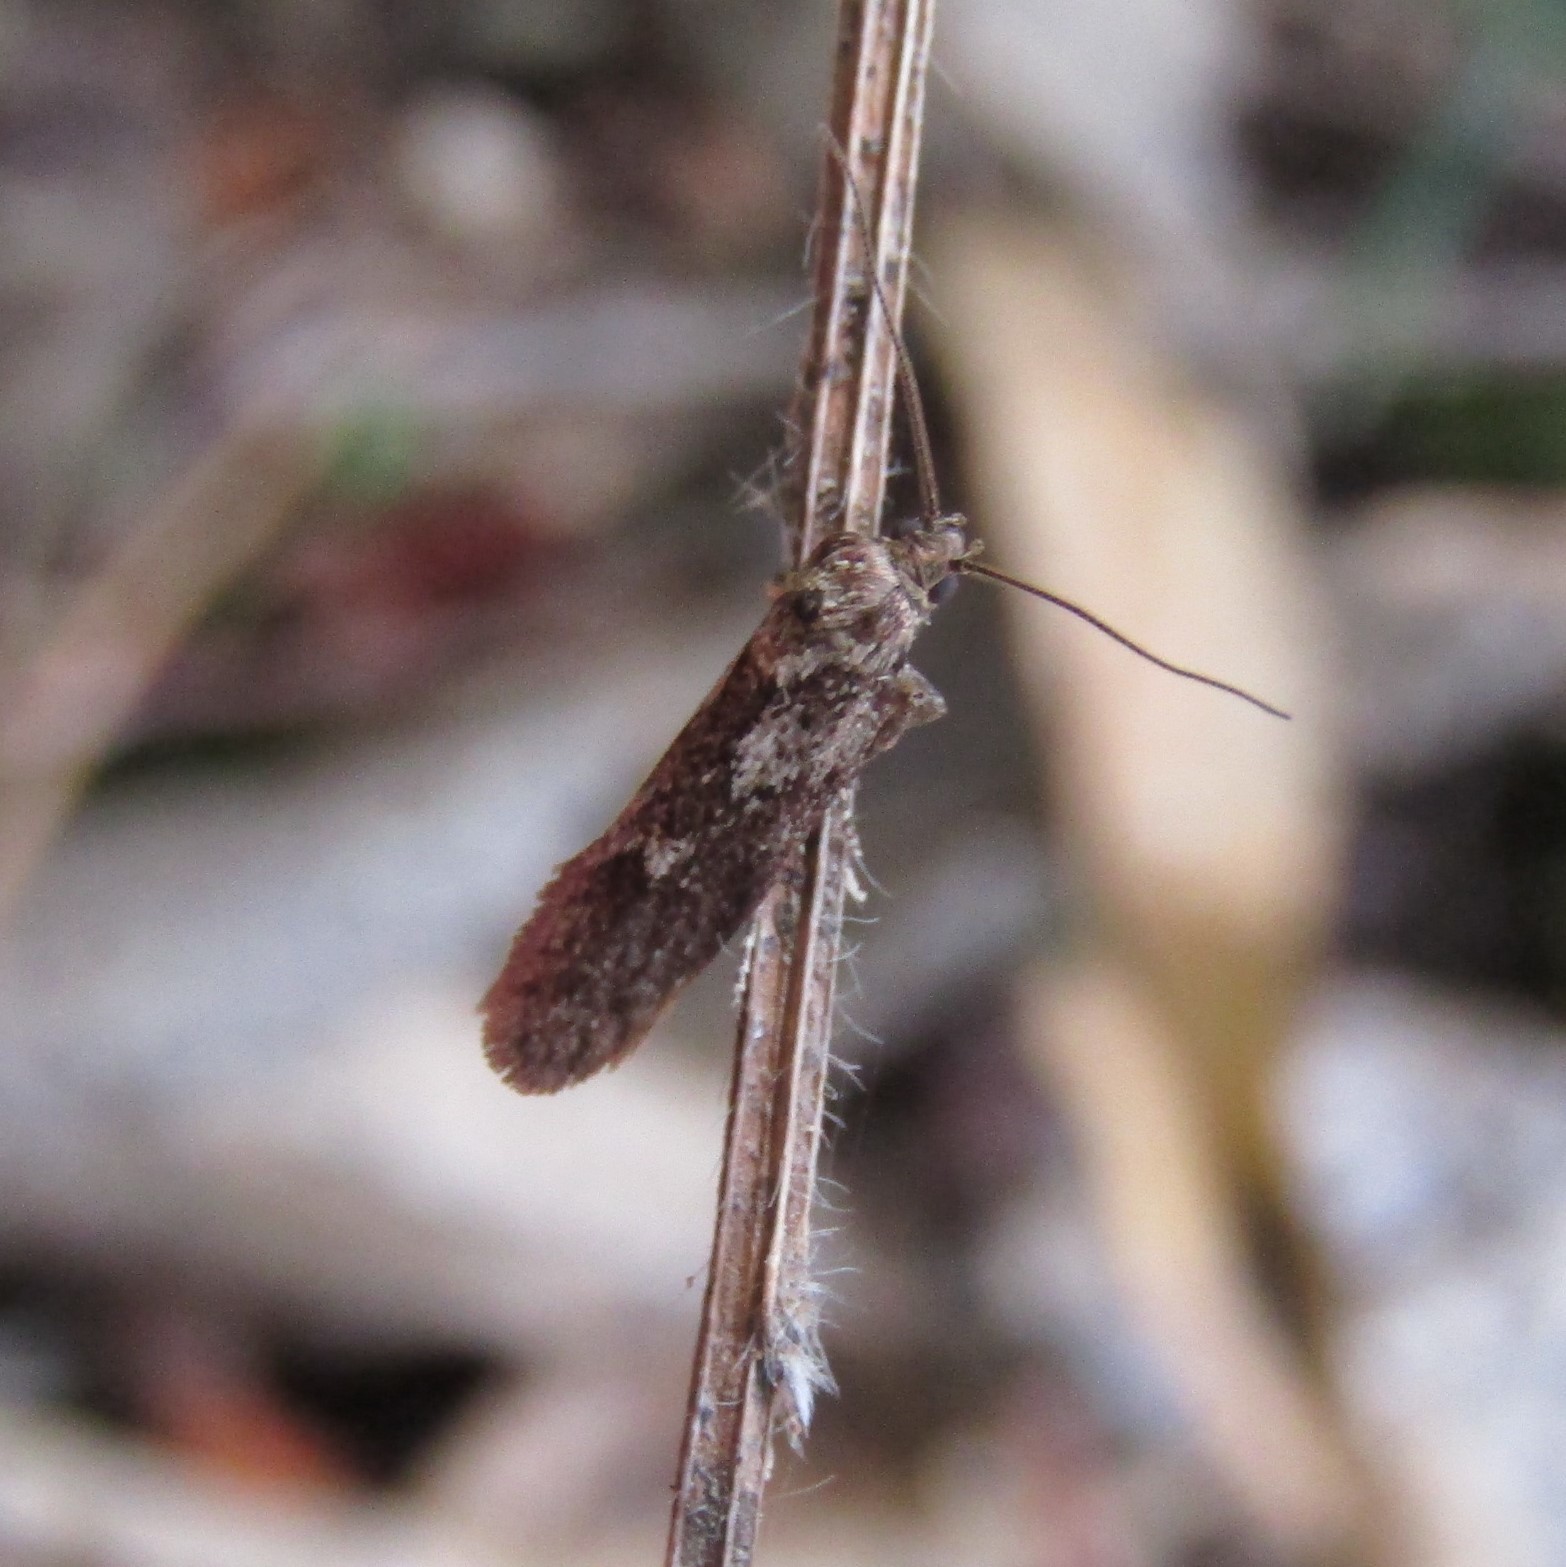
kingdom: Animalia
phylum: Arthropoda
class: Insecta
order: Lepidoptera
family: Oecophoridae
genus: Chersadaula
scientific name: Chersadaula ochrogastra
